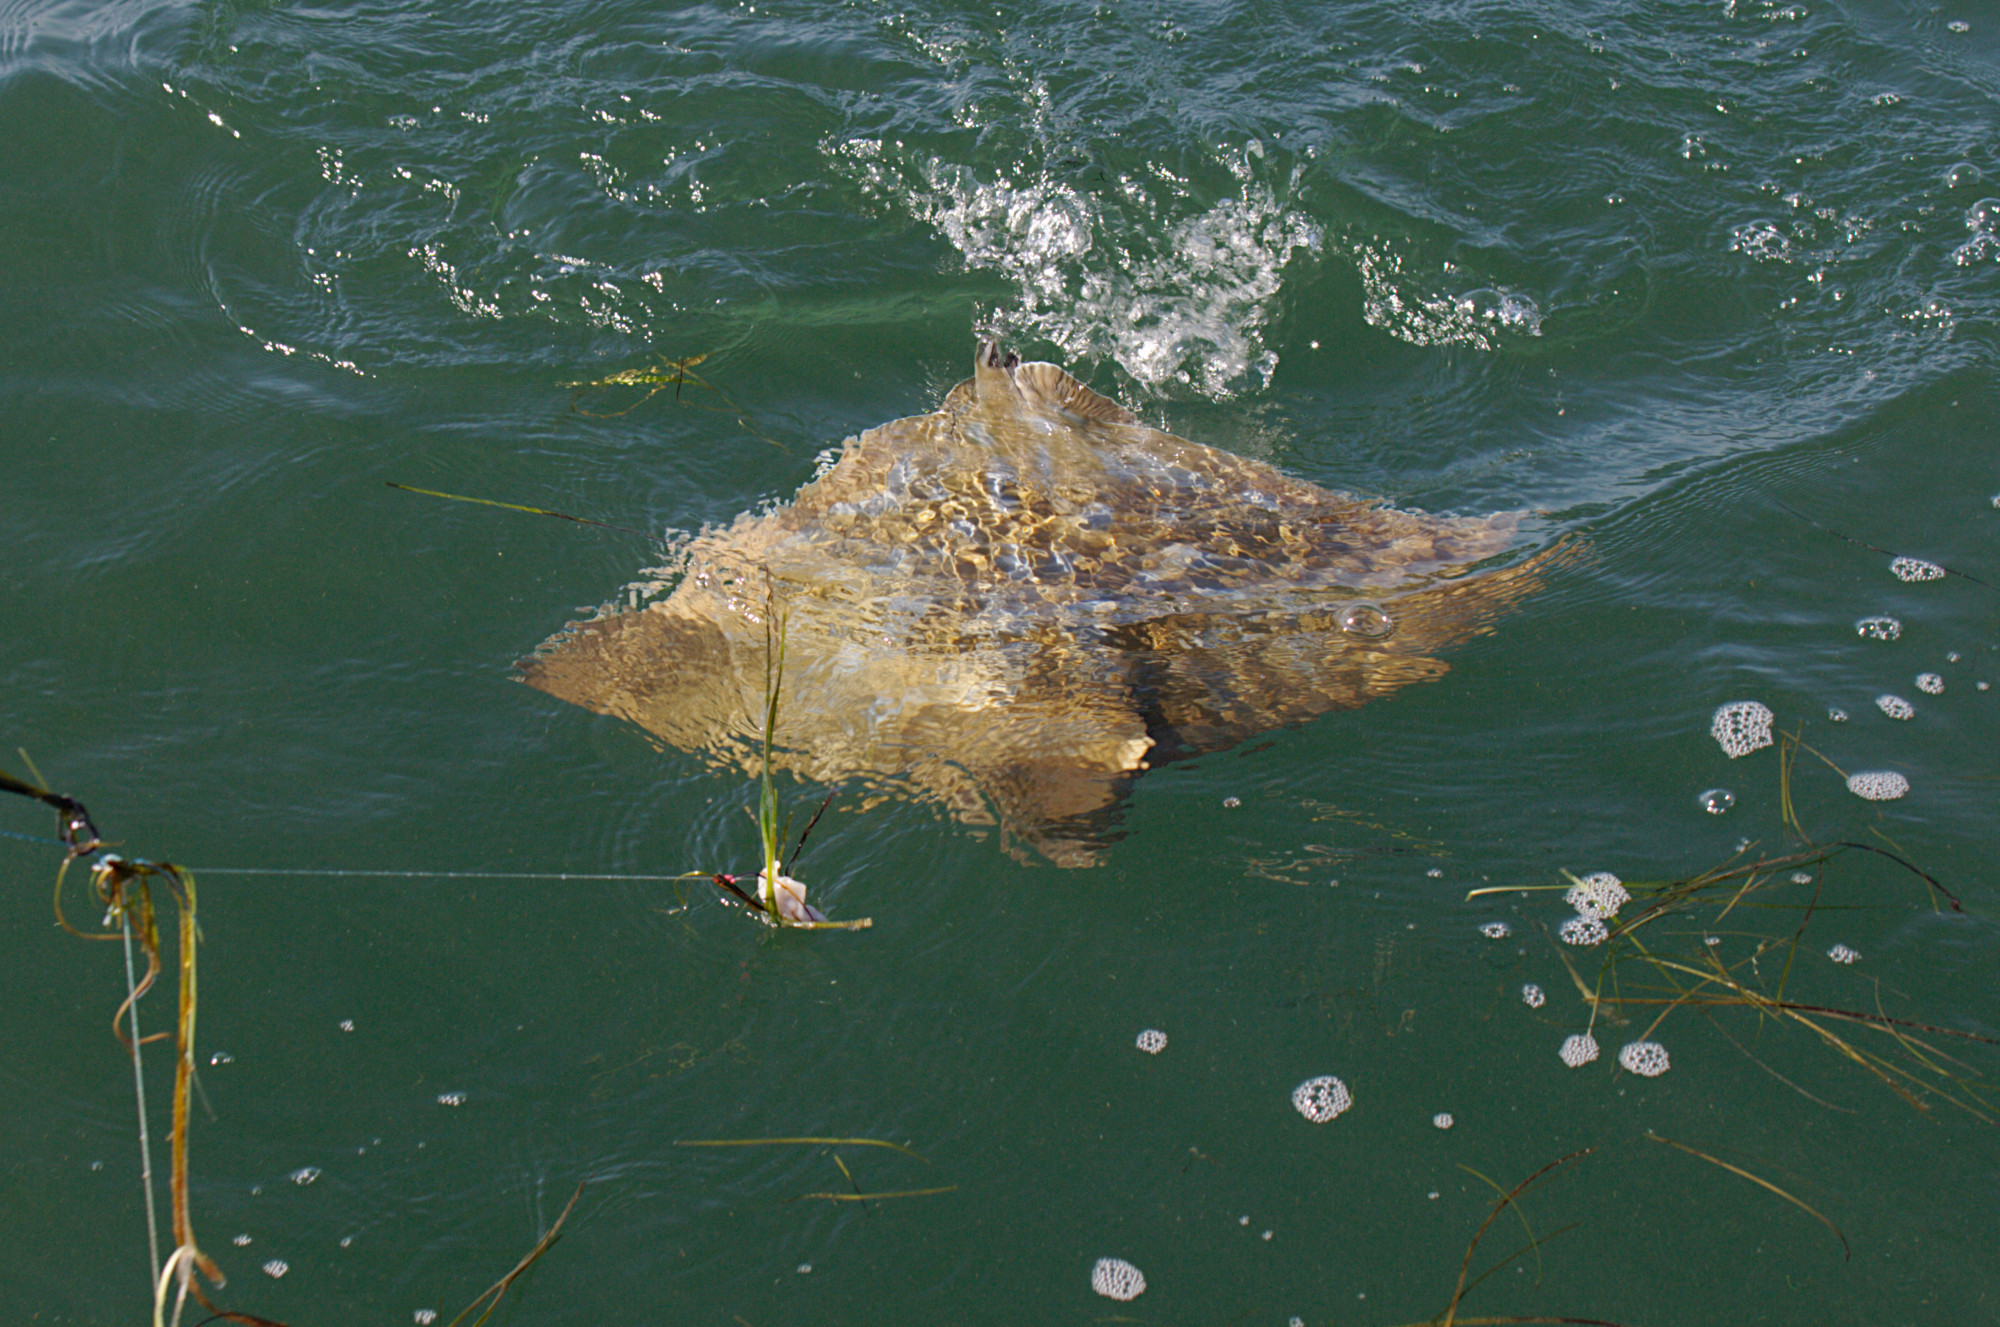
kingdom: Animalia
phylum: Chordata
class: Elasmobranchii
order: Myliobatiformes
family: Myliobatidae
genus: Myliobatis
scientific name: Myliobatis tenuicaudatus
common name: Eagle ray
